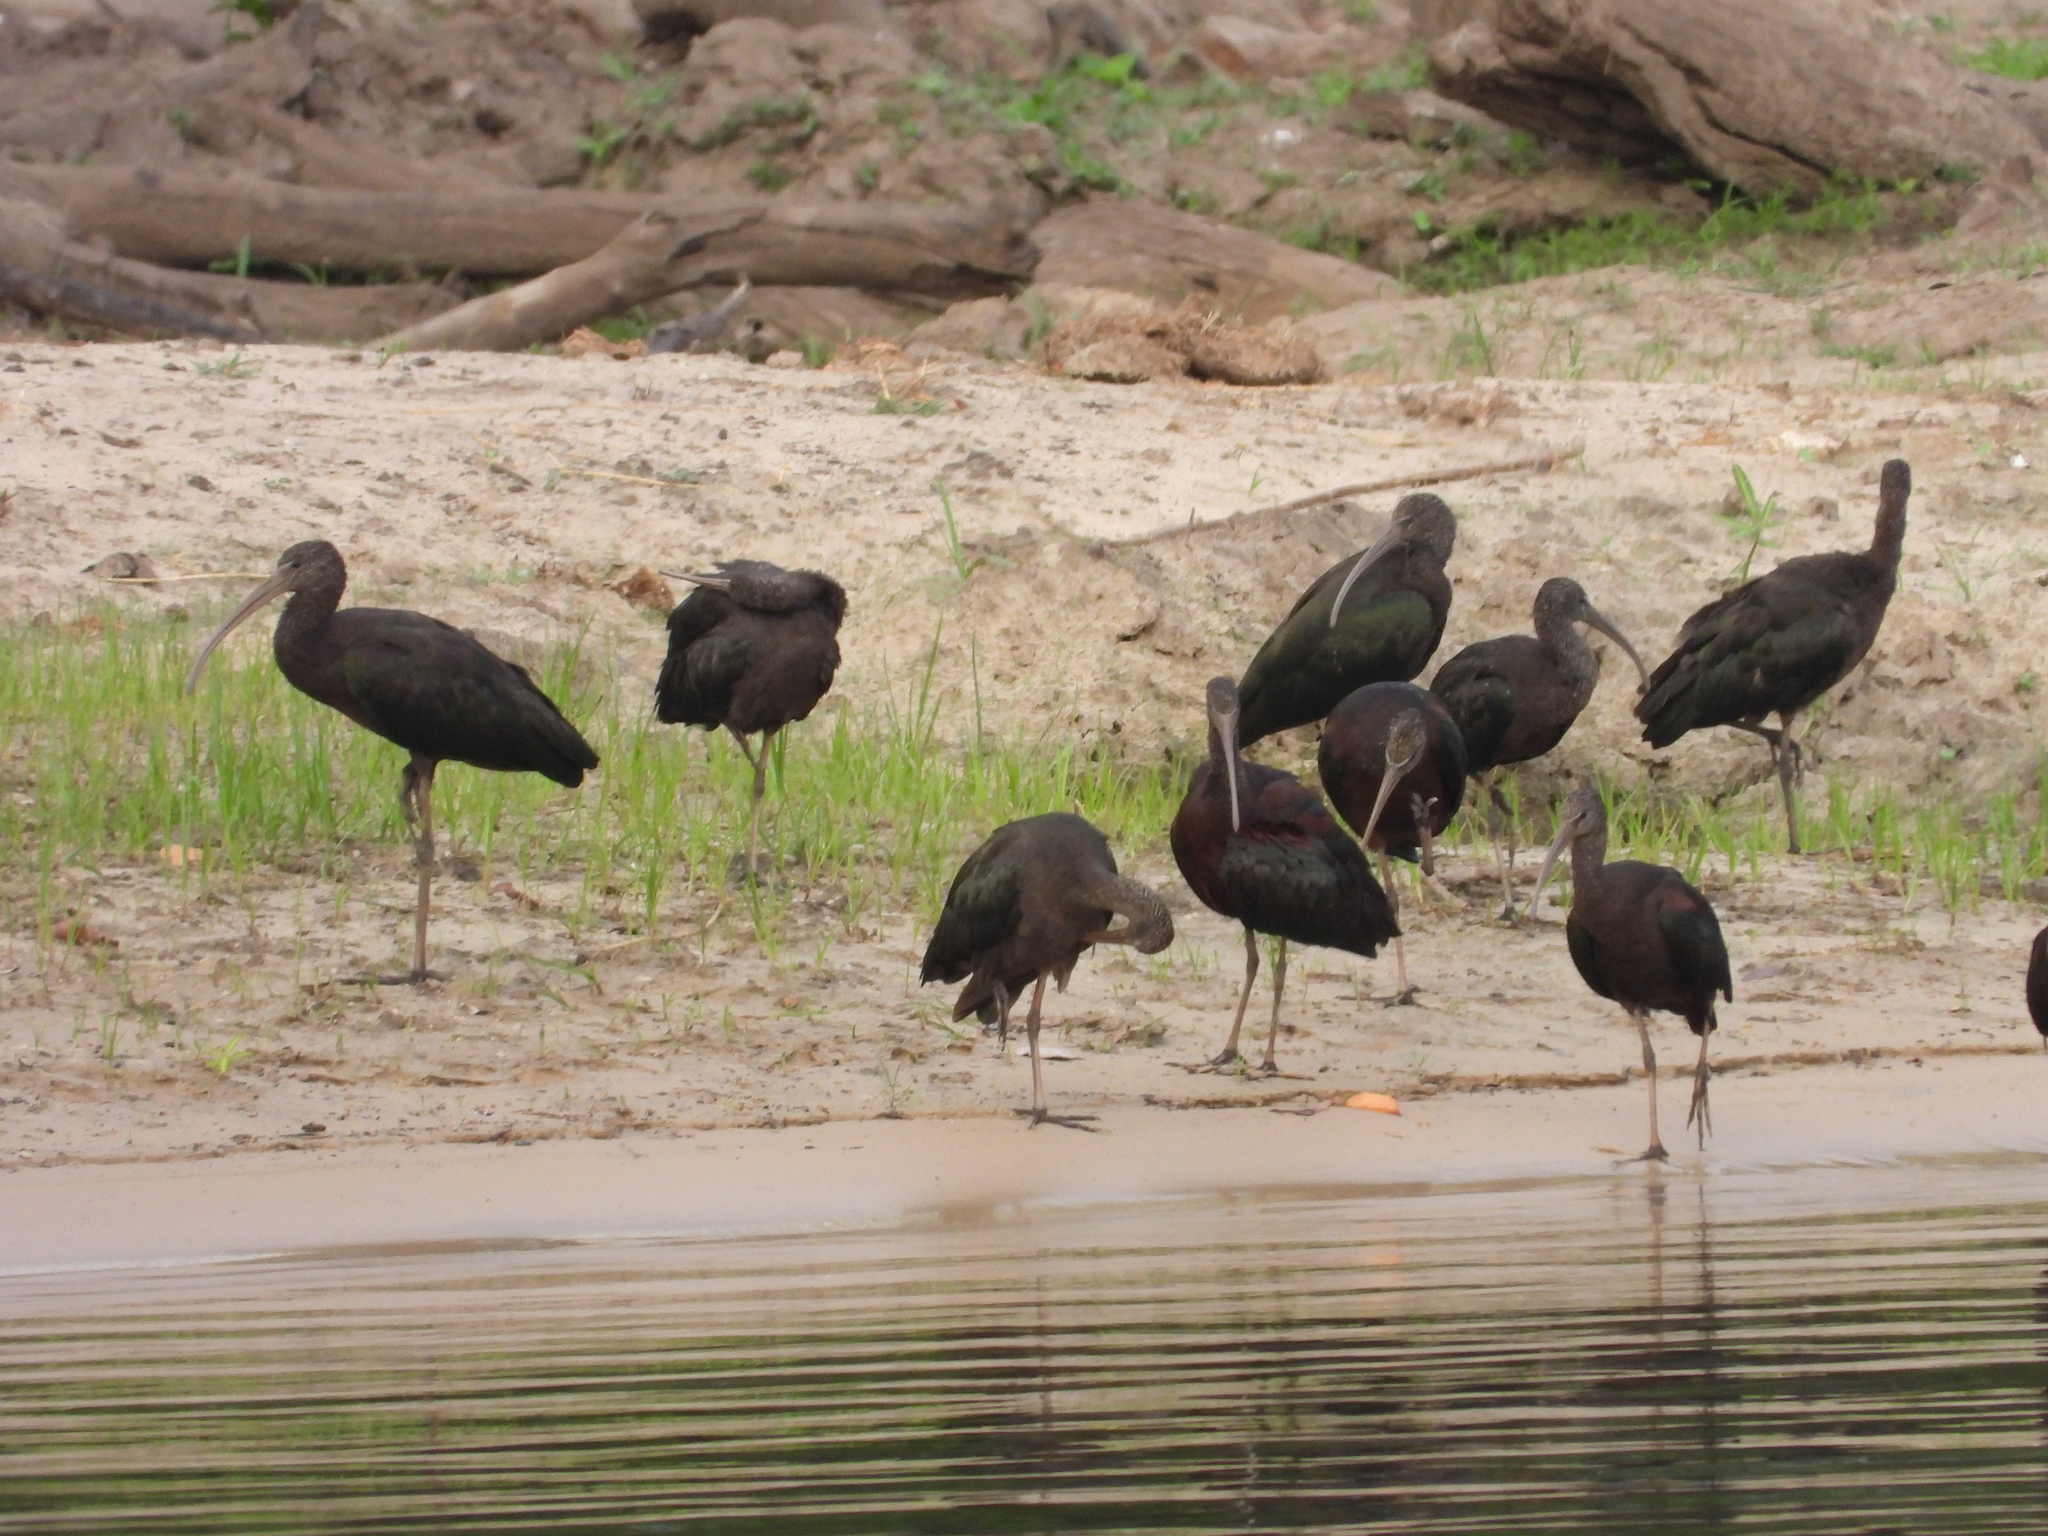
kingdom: Animalia
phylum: Chordata
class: Aves
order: Pelecaniformes
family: Threskiornithidae
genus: Plegadis
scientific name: Plegadis falcinellus
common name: Glossy ibis
